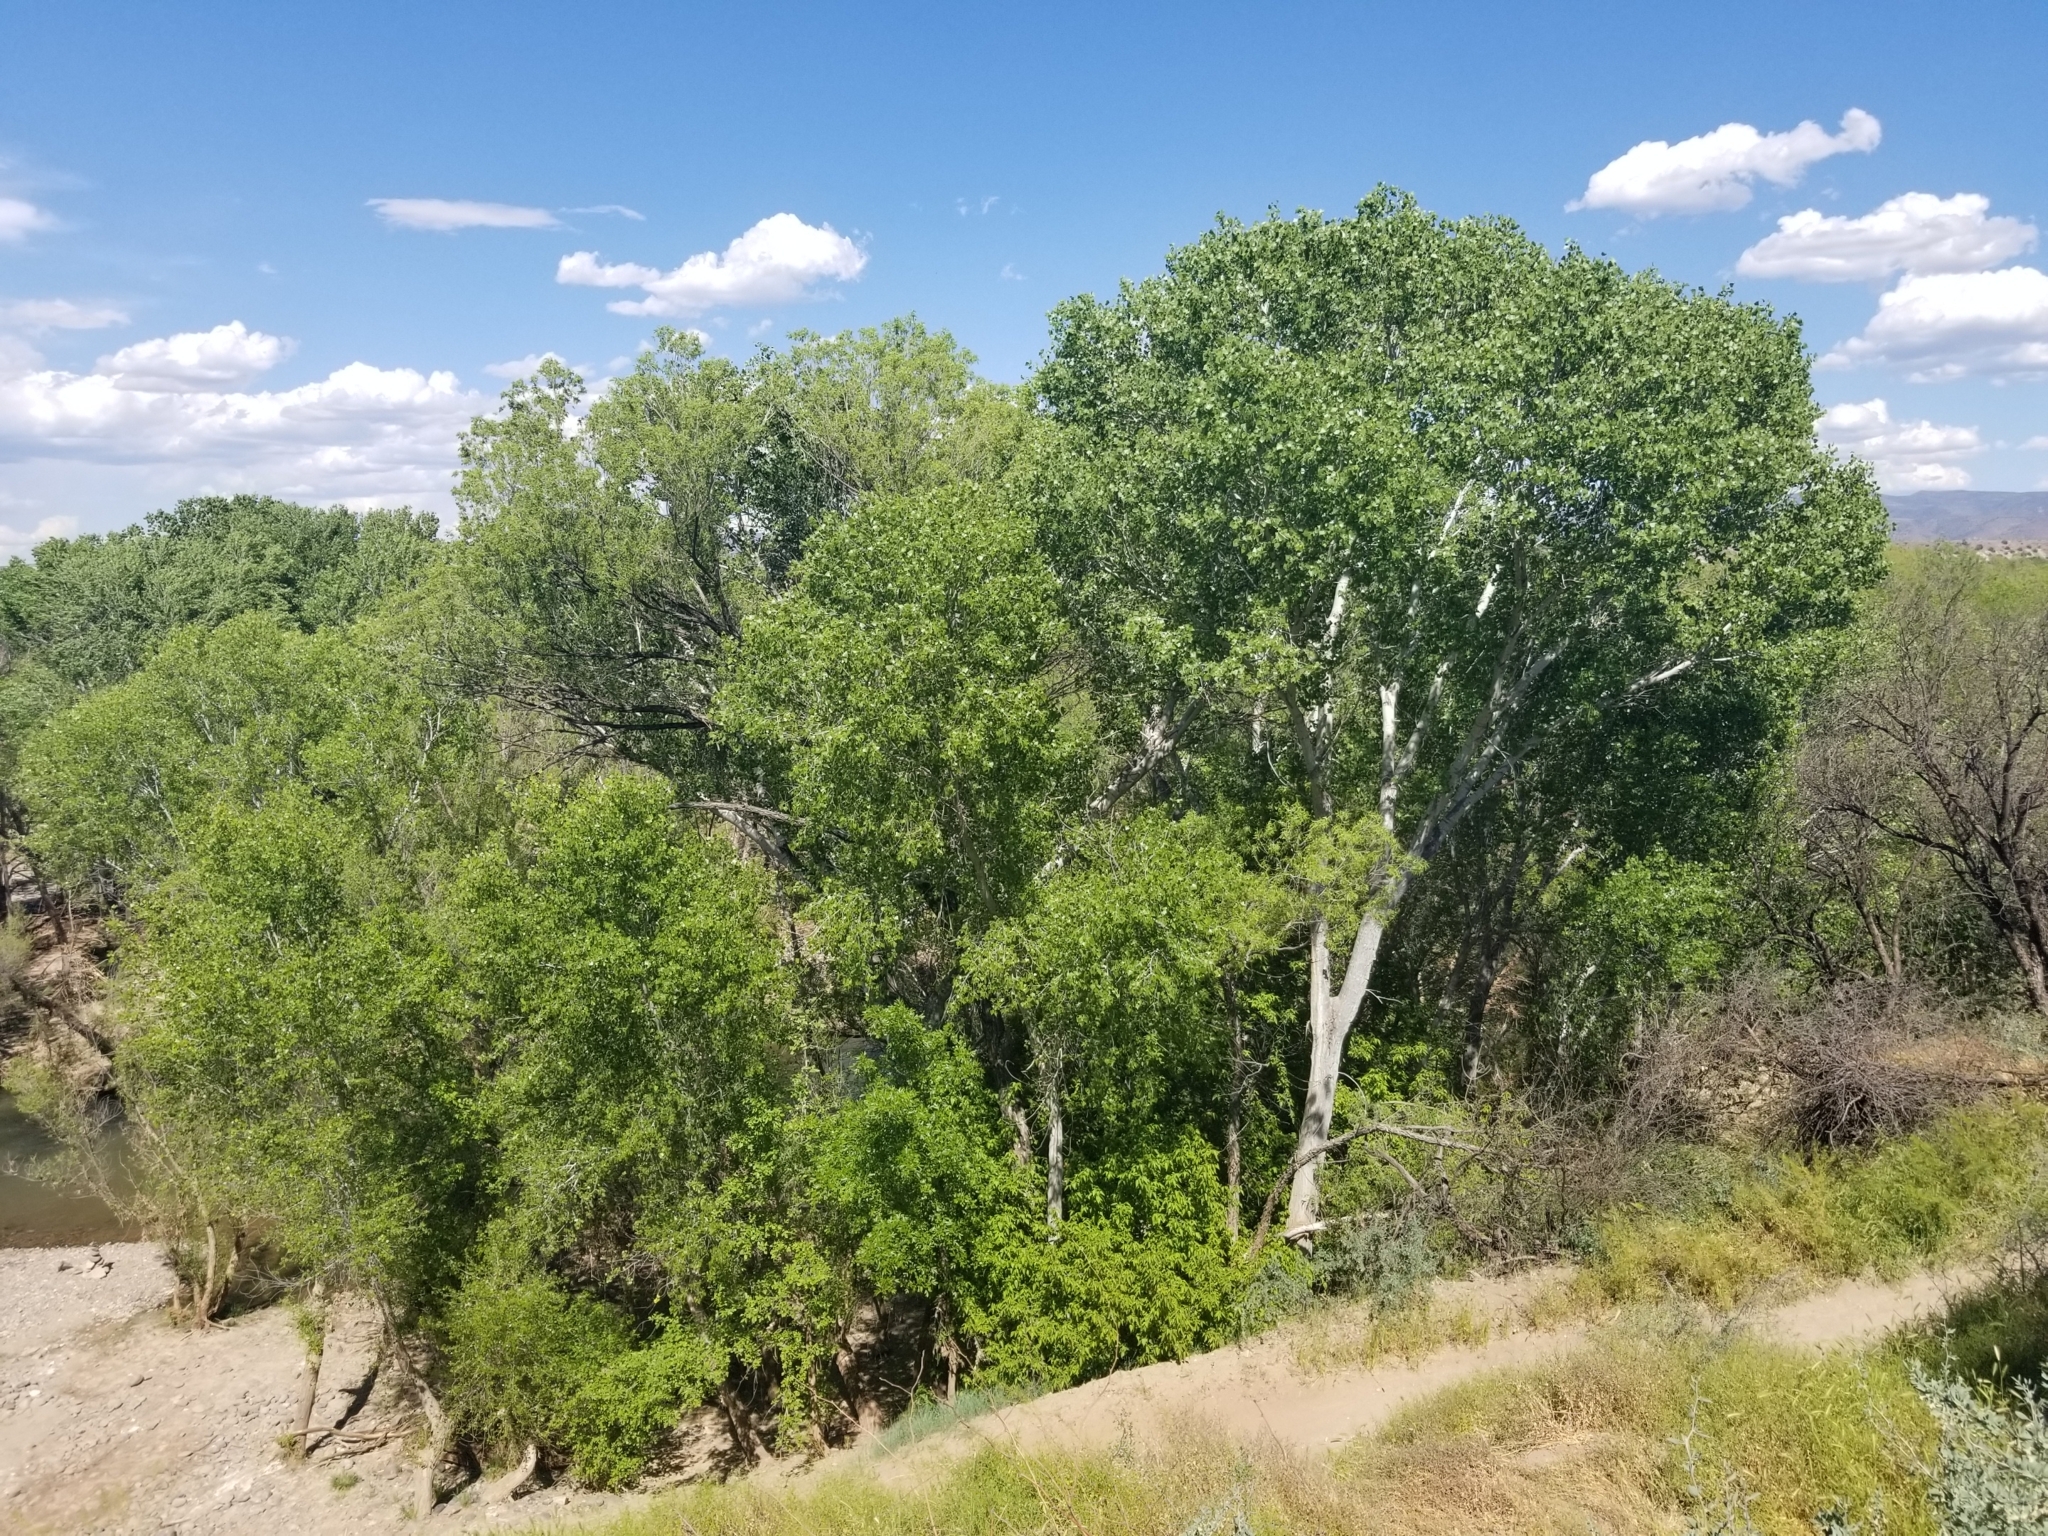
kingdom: Plantae
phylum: Tracheophyta
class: Magnoliopsida
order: Malpighiales
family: Salicaceae
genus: Populus
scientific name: Populus fremontii
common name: Fremont's cottonwood
